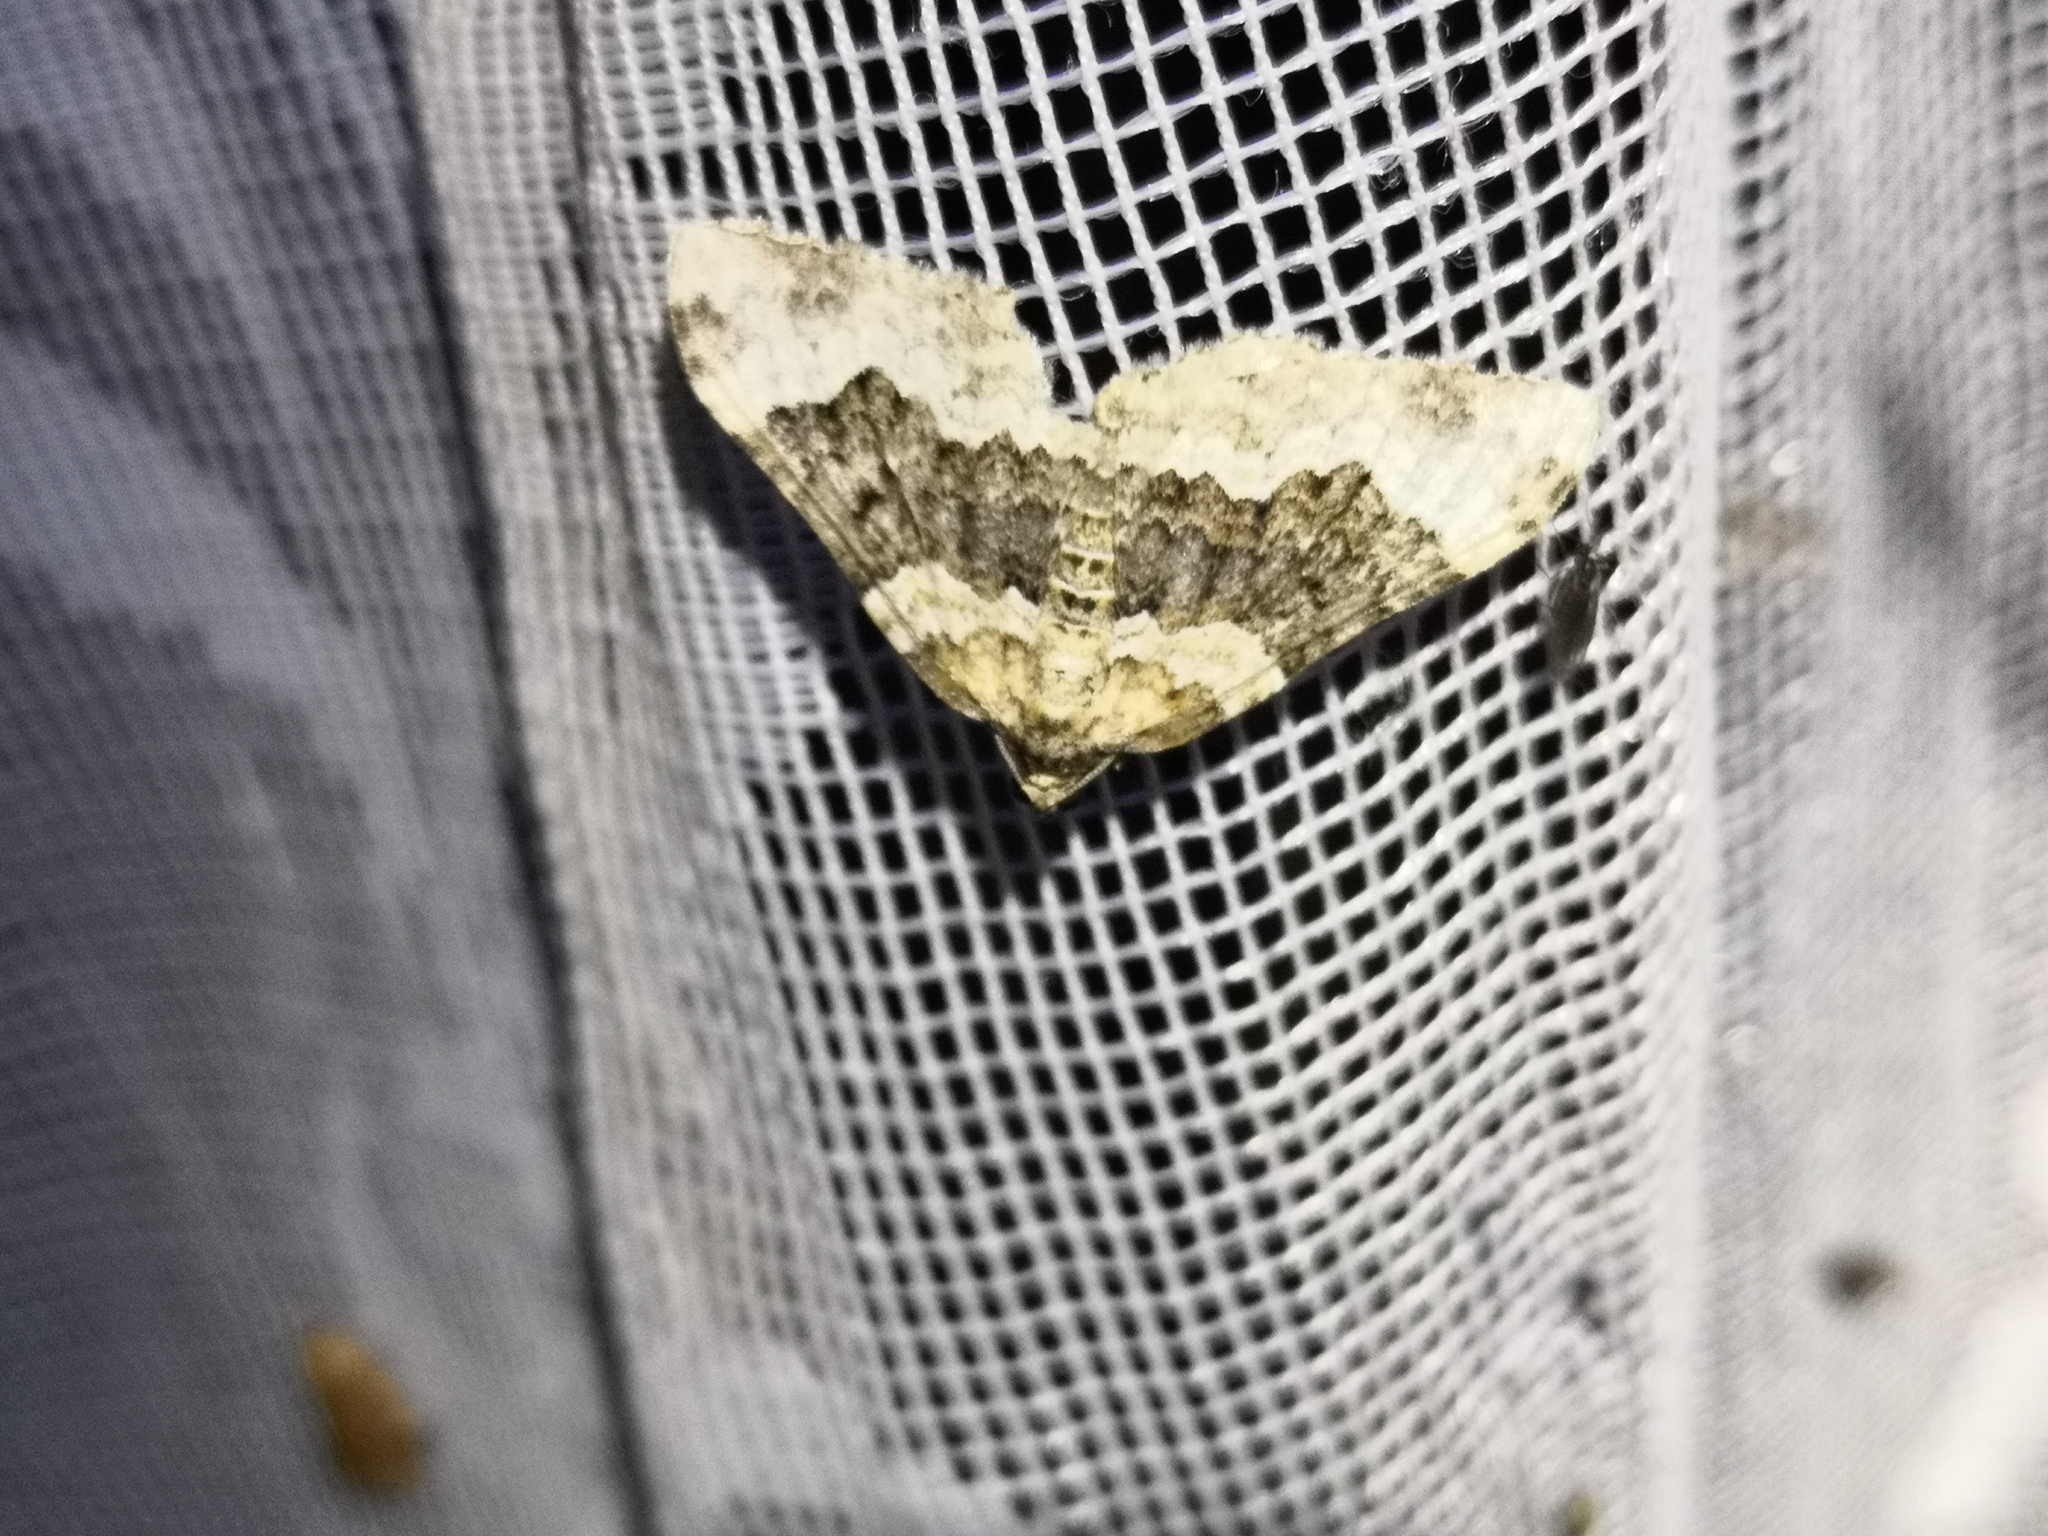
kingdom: Animalia
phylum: Arthropoda
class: Insecta
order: Lepidoptera
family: Geometridae
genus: Epirrhoe
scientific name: Epirrhoe galiata
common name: Galium carpet
